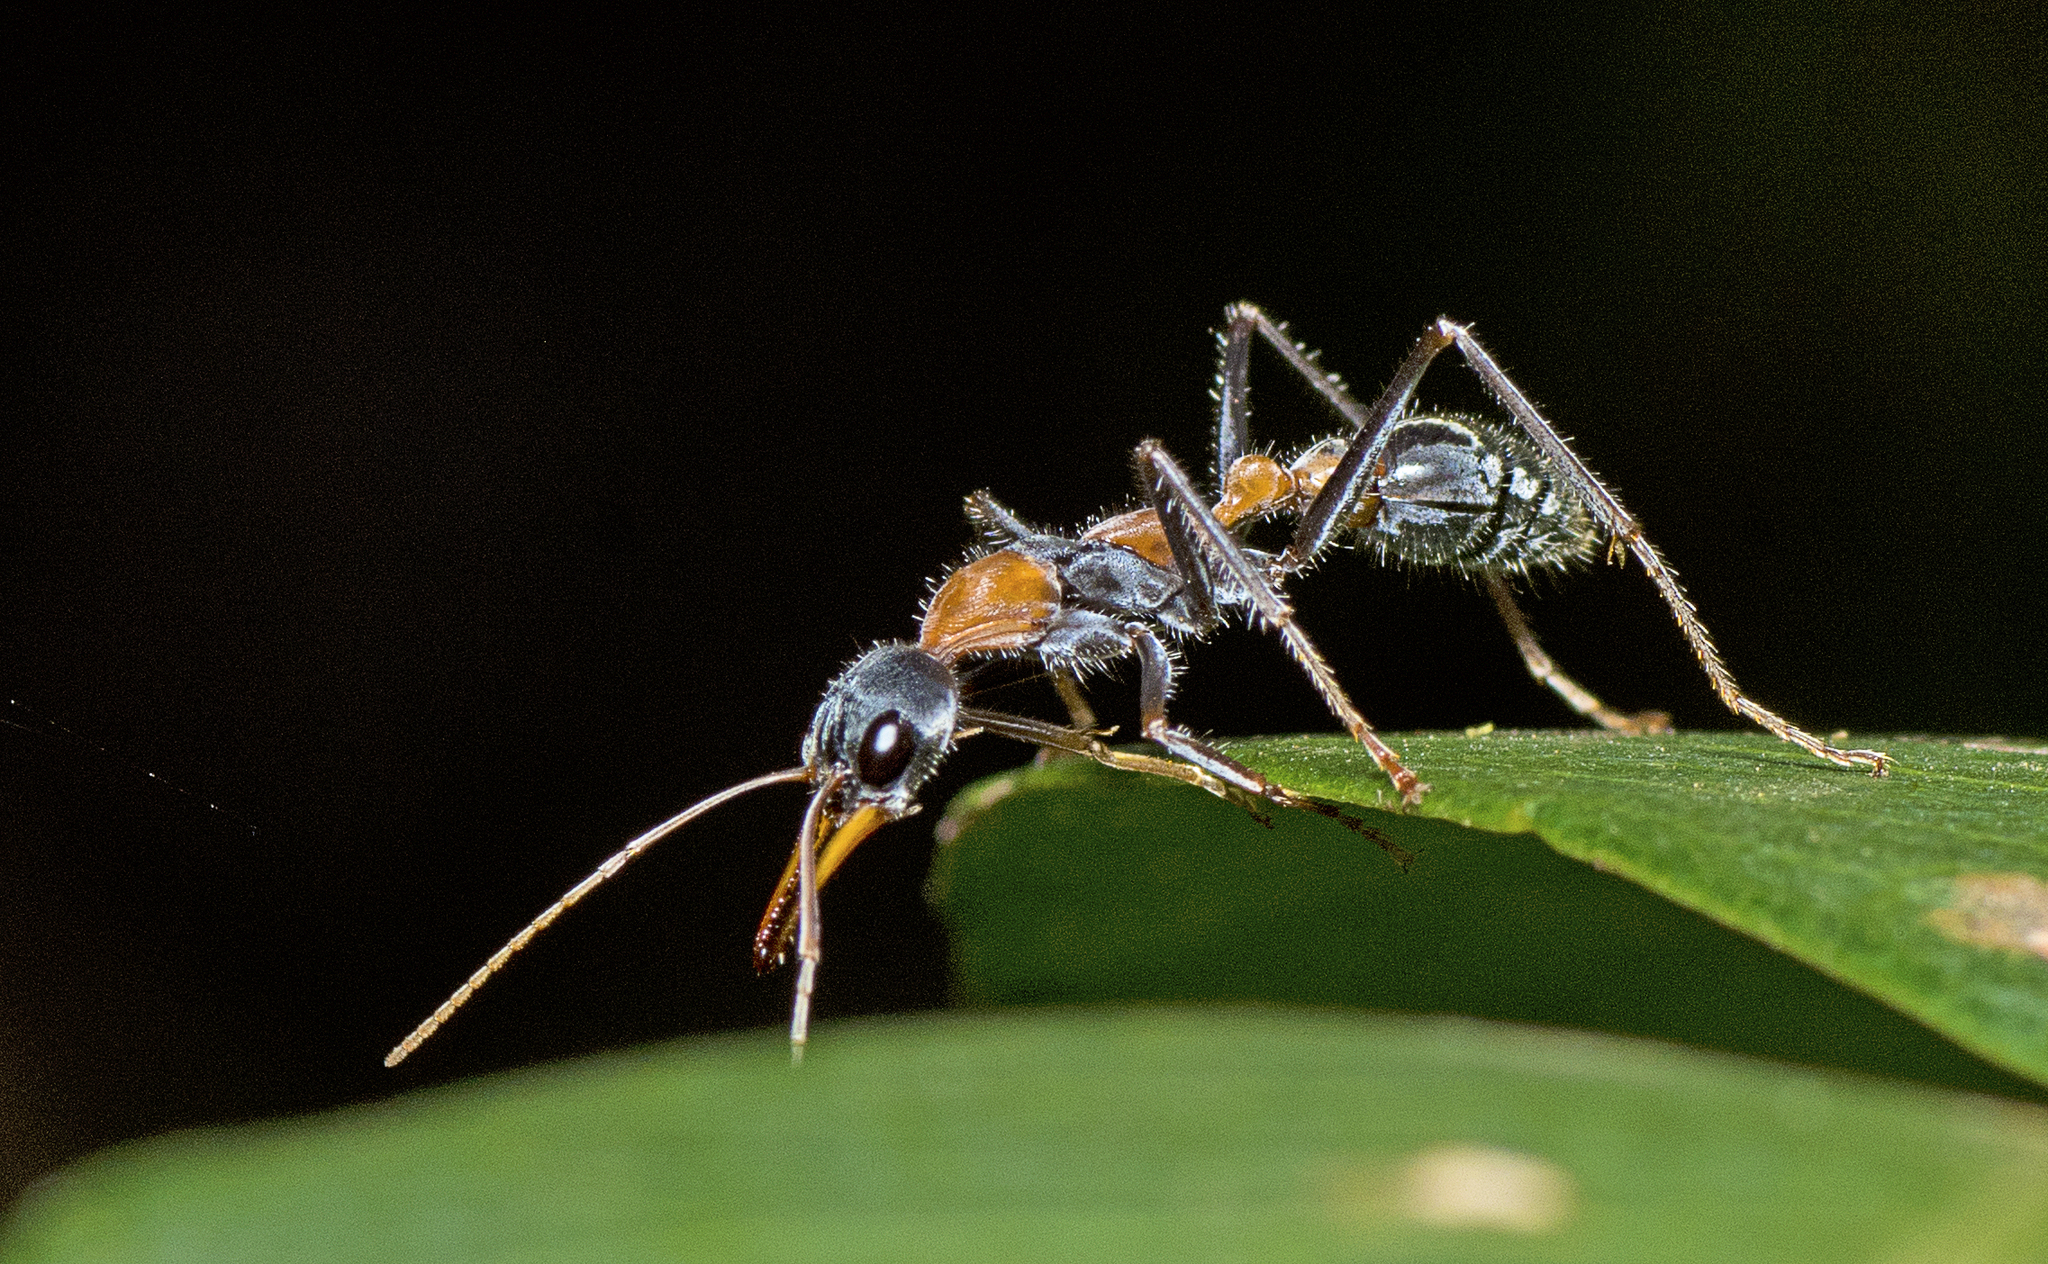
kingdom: Animalia
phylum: Arthropoda
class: Insecta
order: Hymenoptera
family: Formicidae
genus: Myrmecia
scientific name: Myrmecia nigrocincta
